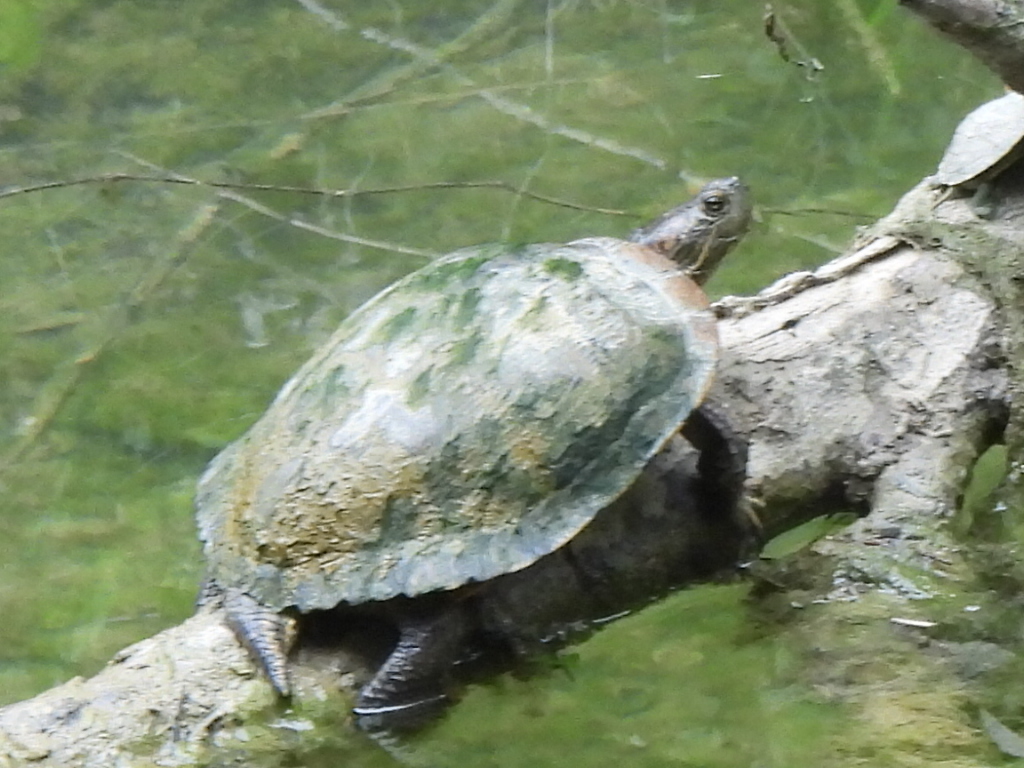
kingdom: Animalia
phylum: Chordata
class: Testudines
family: Emydidae
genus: Trachemys
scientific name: Trachemys scripta
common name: Slider
